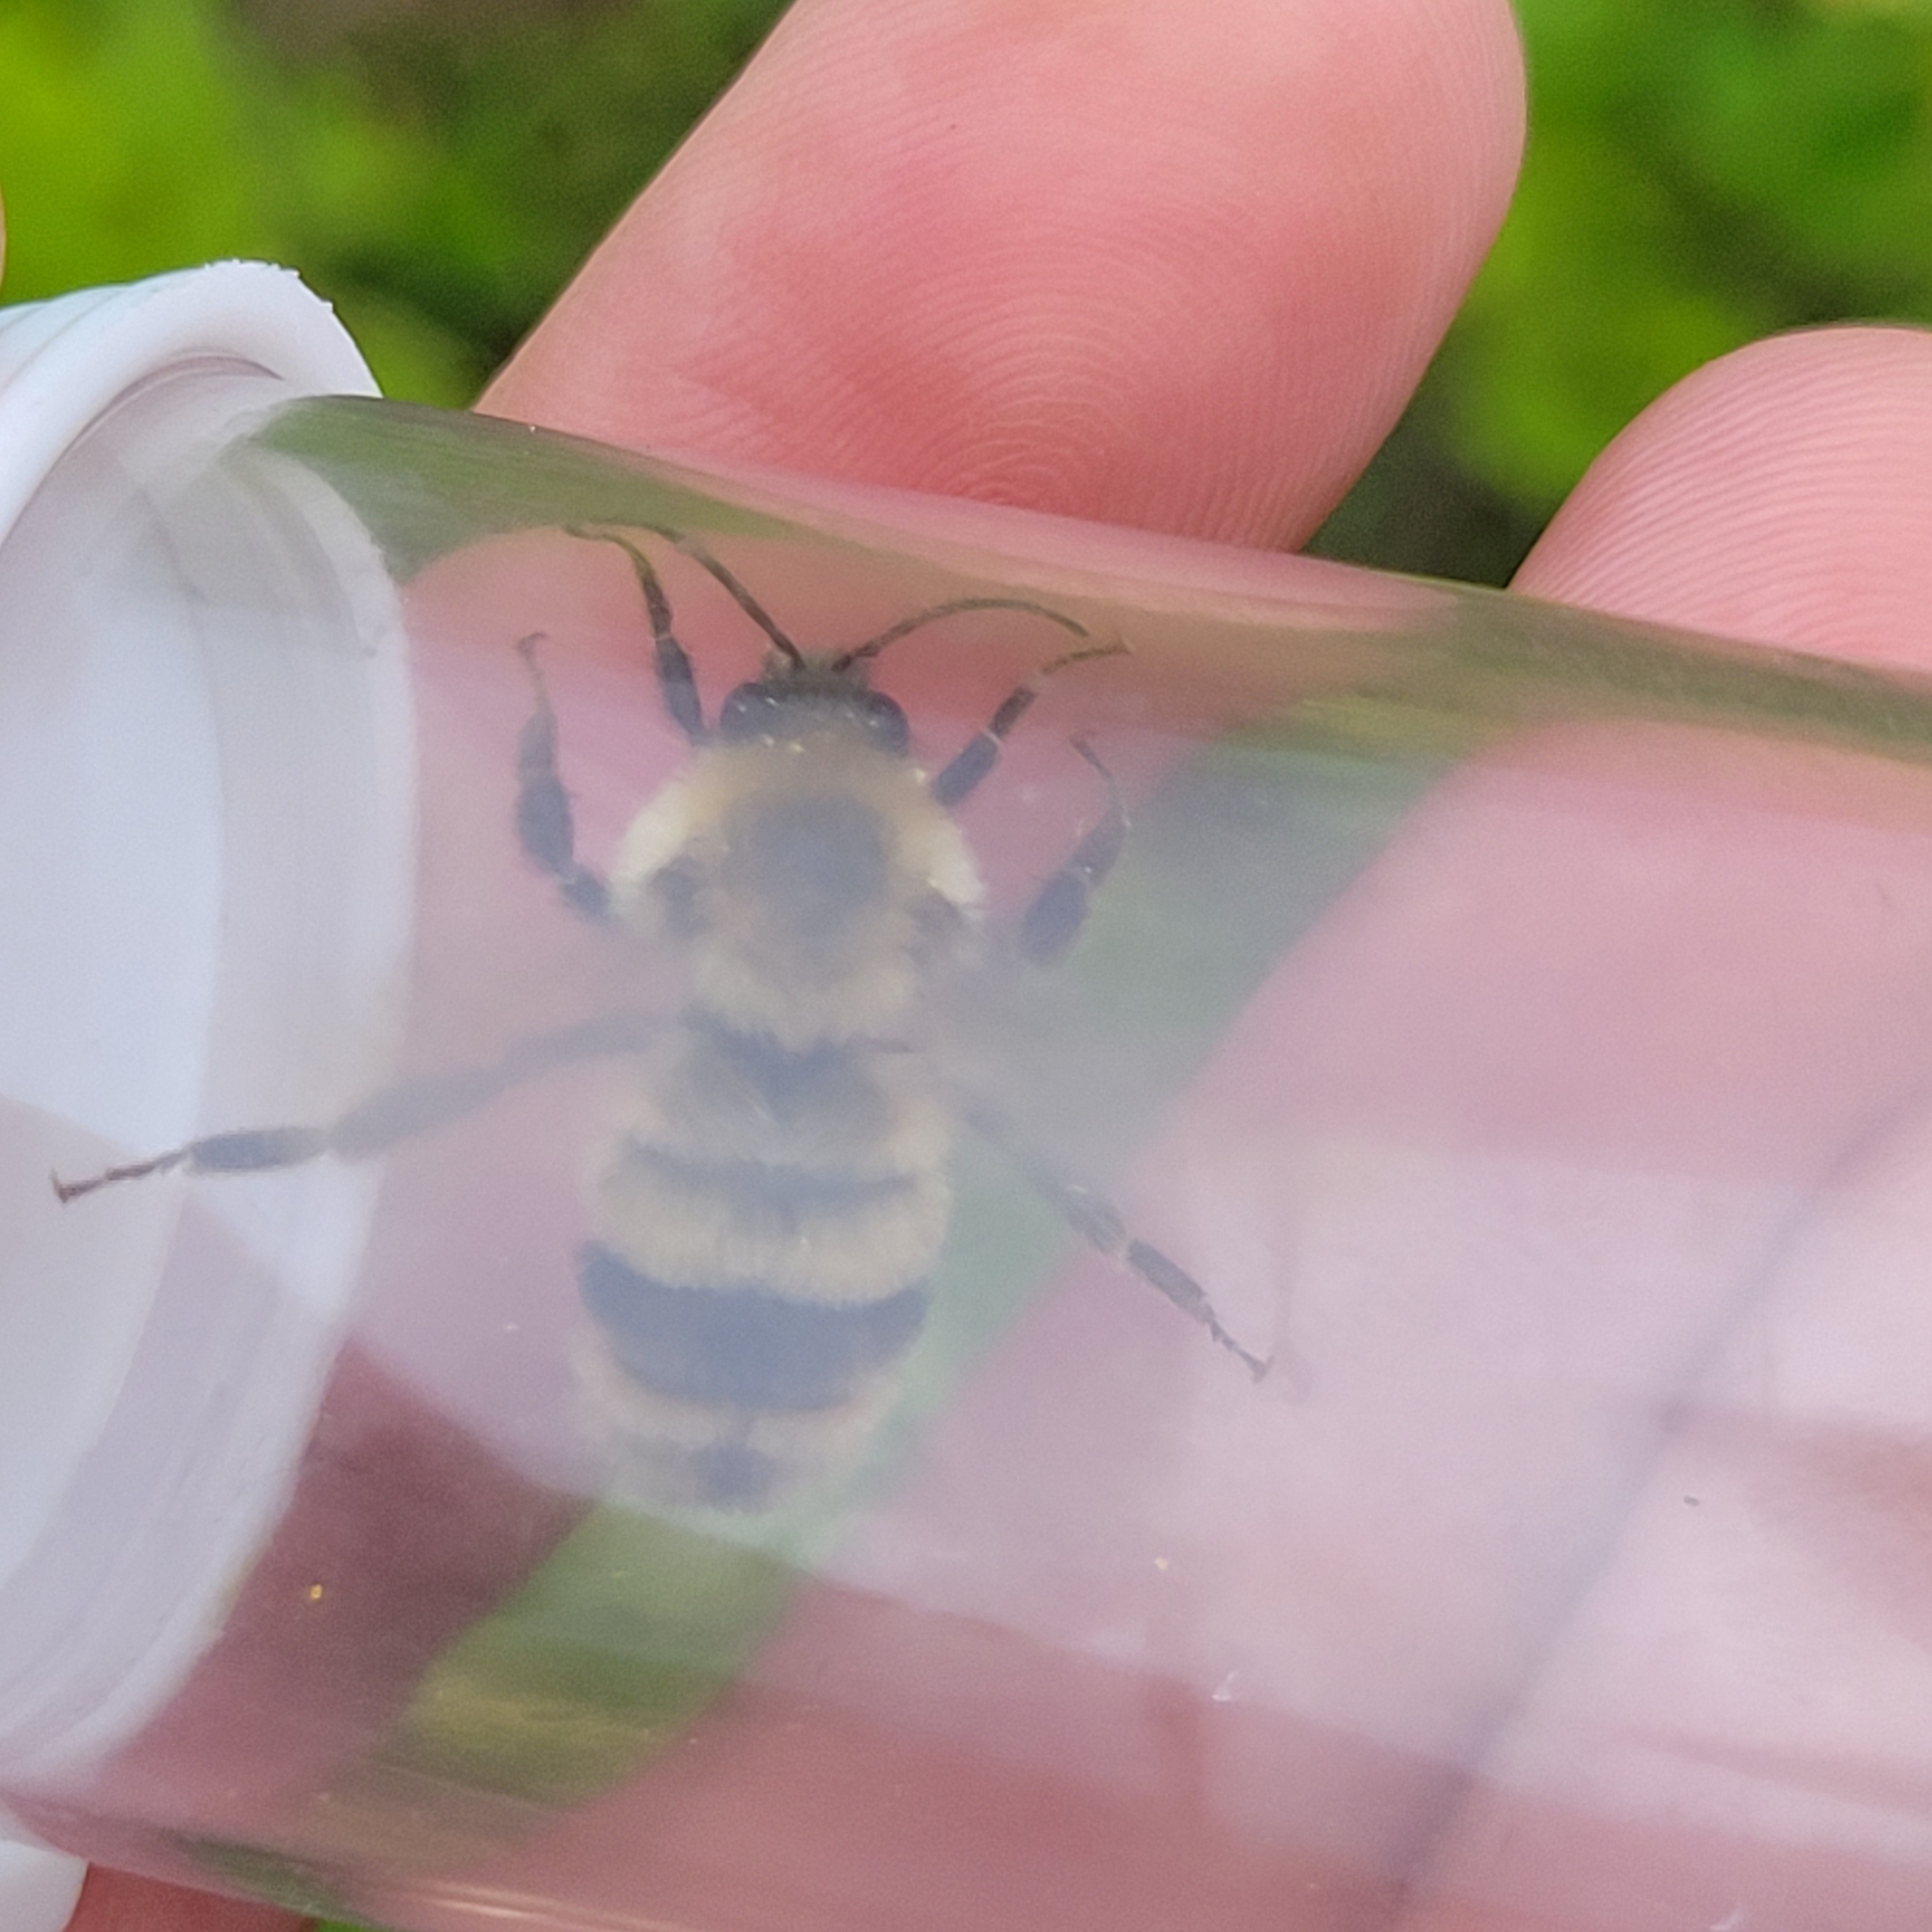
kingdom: Animalia
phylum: Arthropoda
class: Insecta
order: Hymenoptera
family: Apidae
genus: Bombus
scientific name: Bombus bimaculatus
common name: Two-spotted bumble bee
